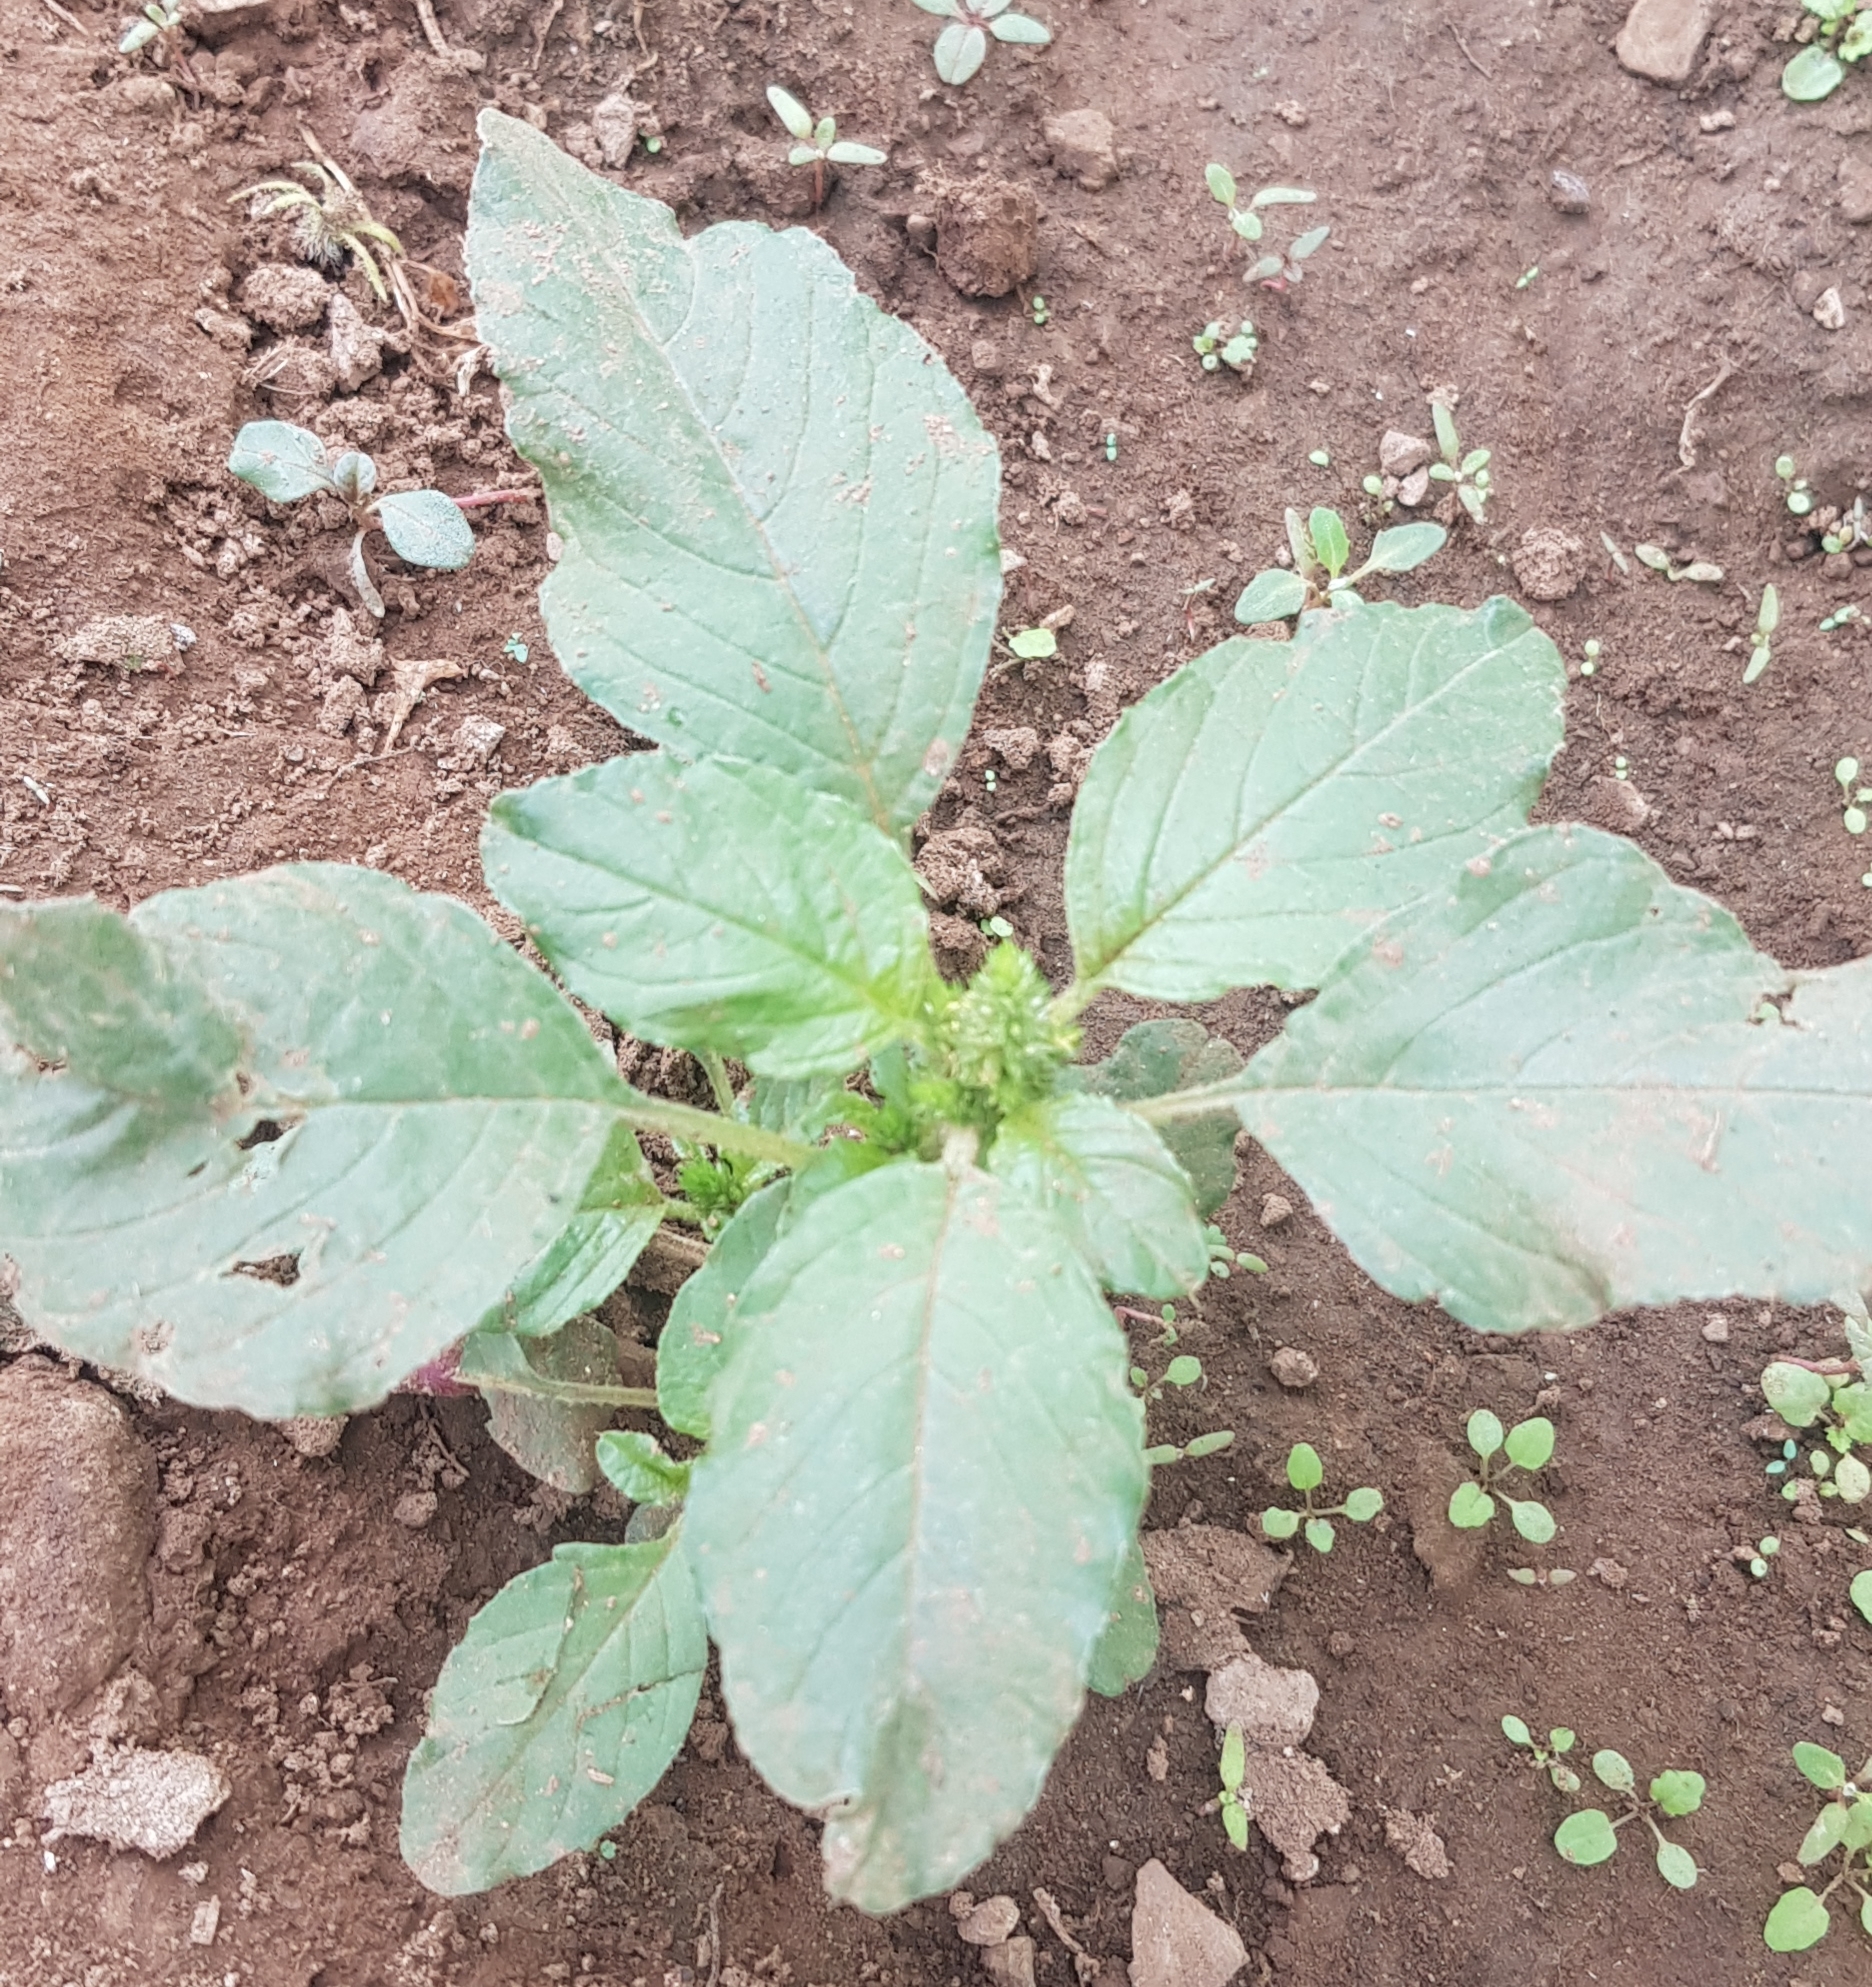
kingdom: Plantae
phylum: Tracheophyta
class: Magnoliopsida
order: Caryophyllales
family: Amaranthaceae
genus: Amaranthus
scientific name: Amaranthus retroflexus
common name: Redroot amaranth
